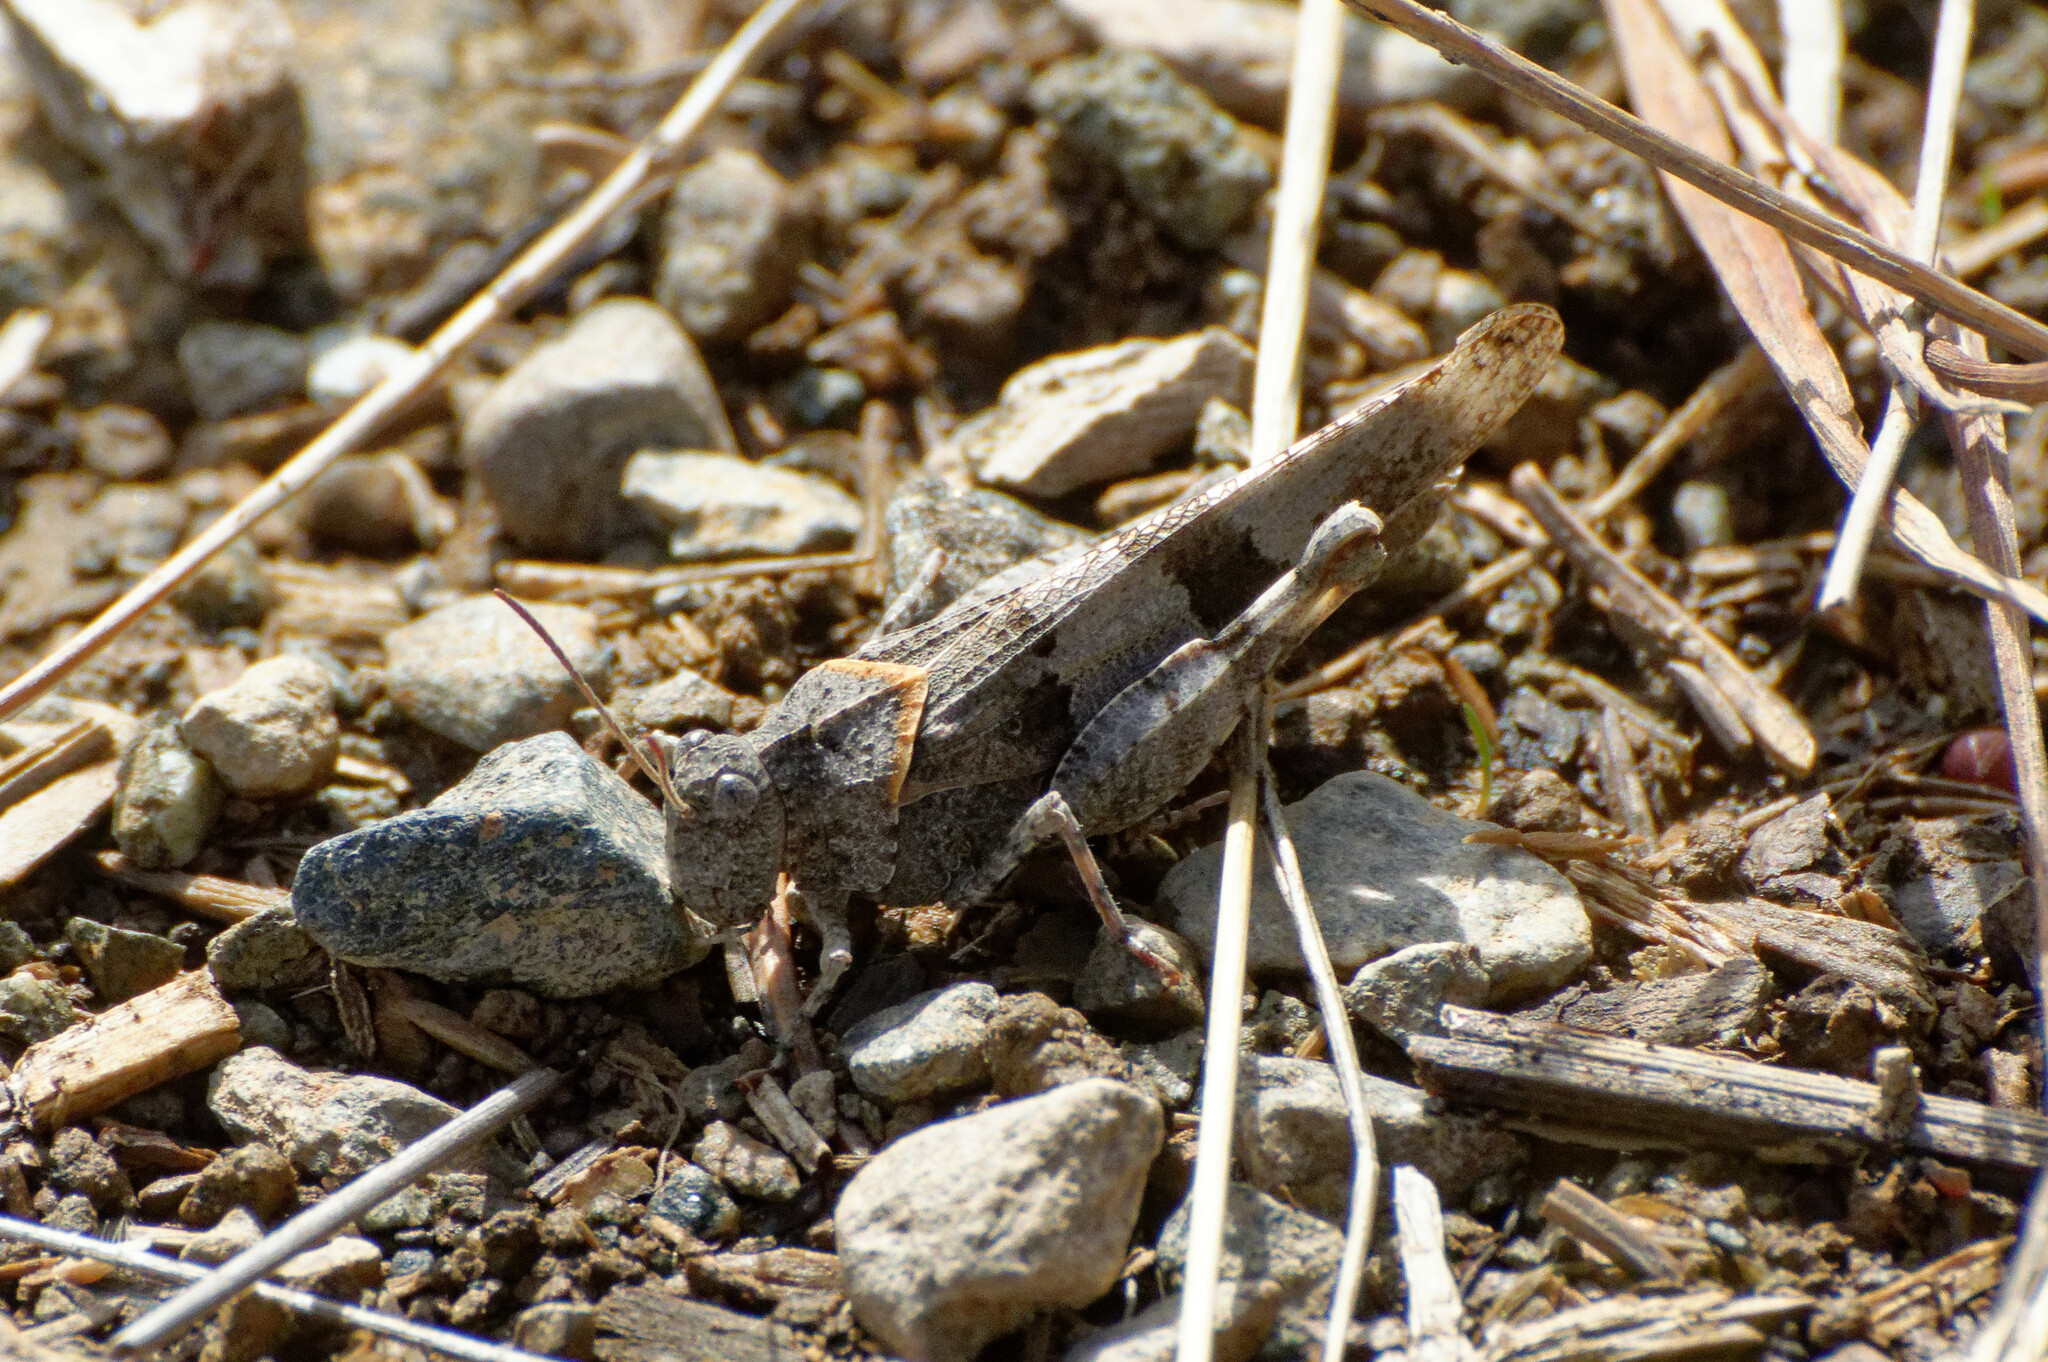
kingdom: Animalia
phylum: Arthropoda
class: Insecta
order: Orthoptera
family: Acrididae
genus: Oedipoda
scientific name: Oedipoda caerulescens
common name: Blue-winged grasshopper
